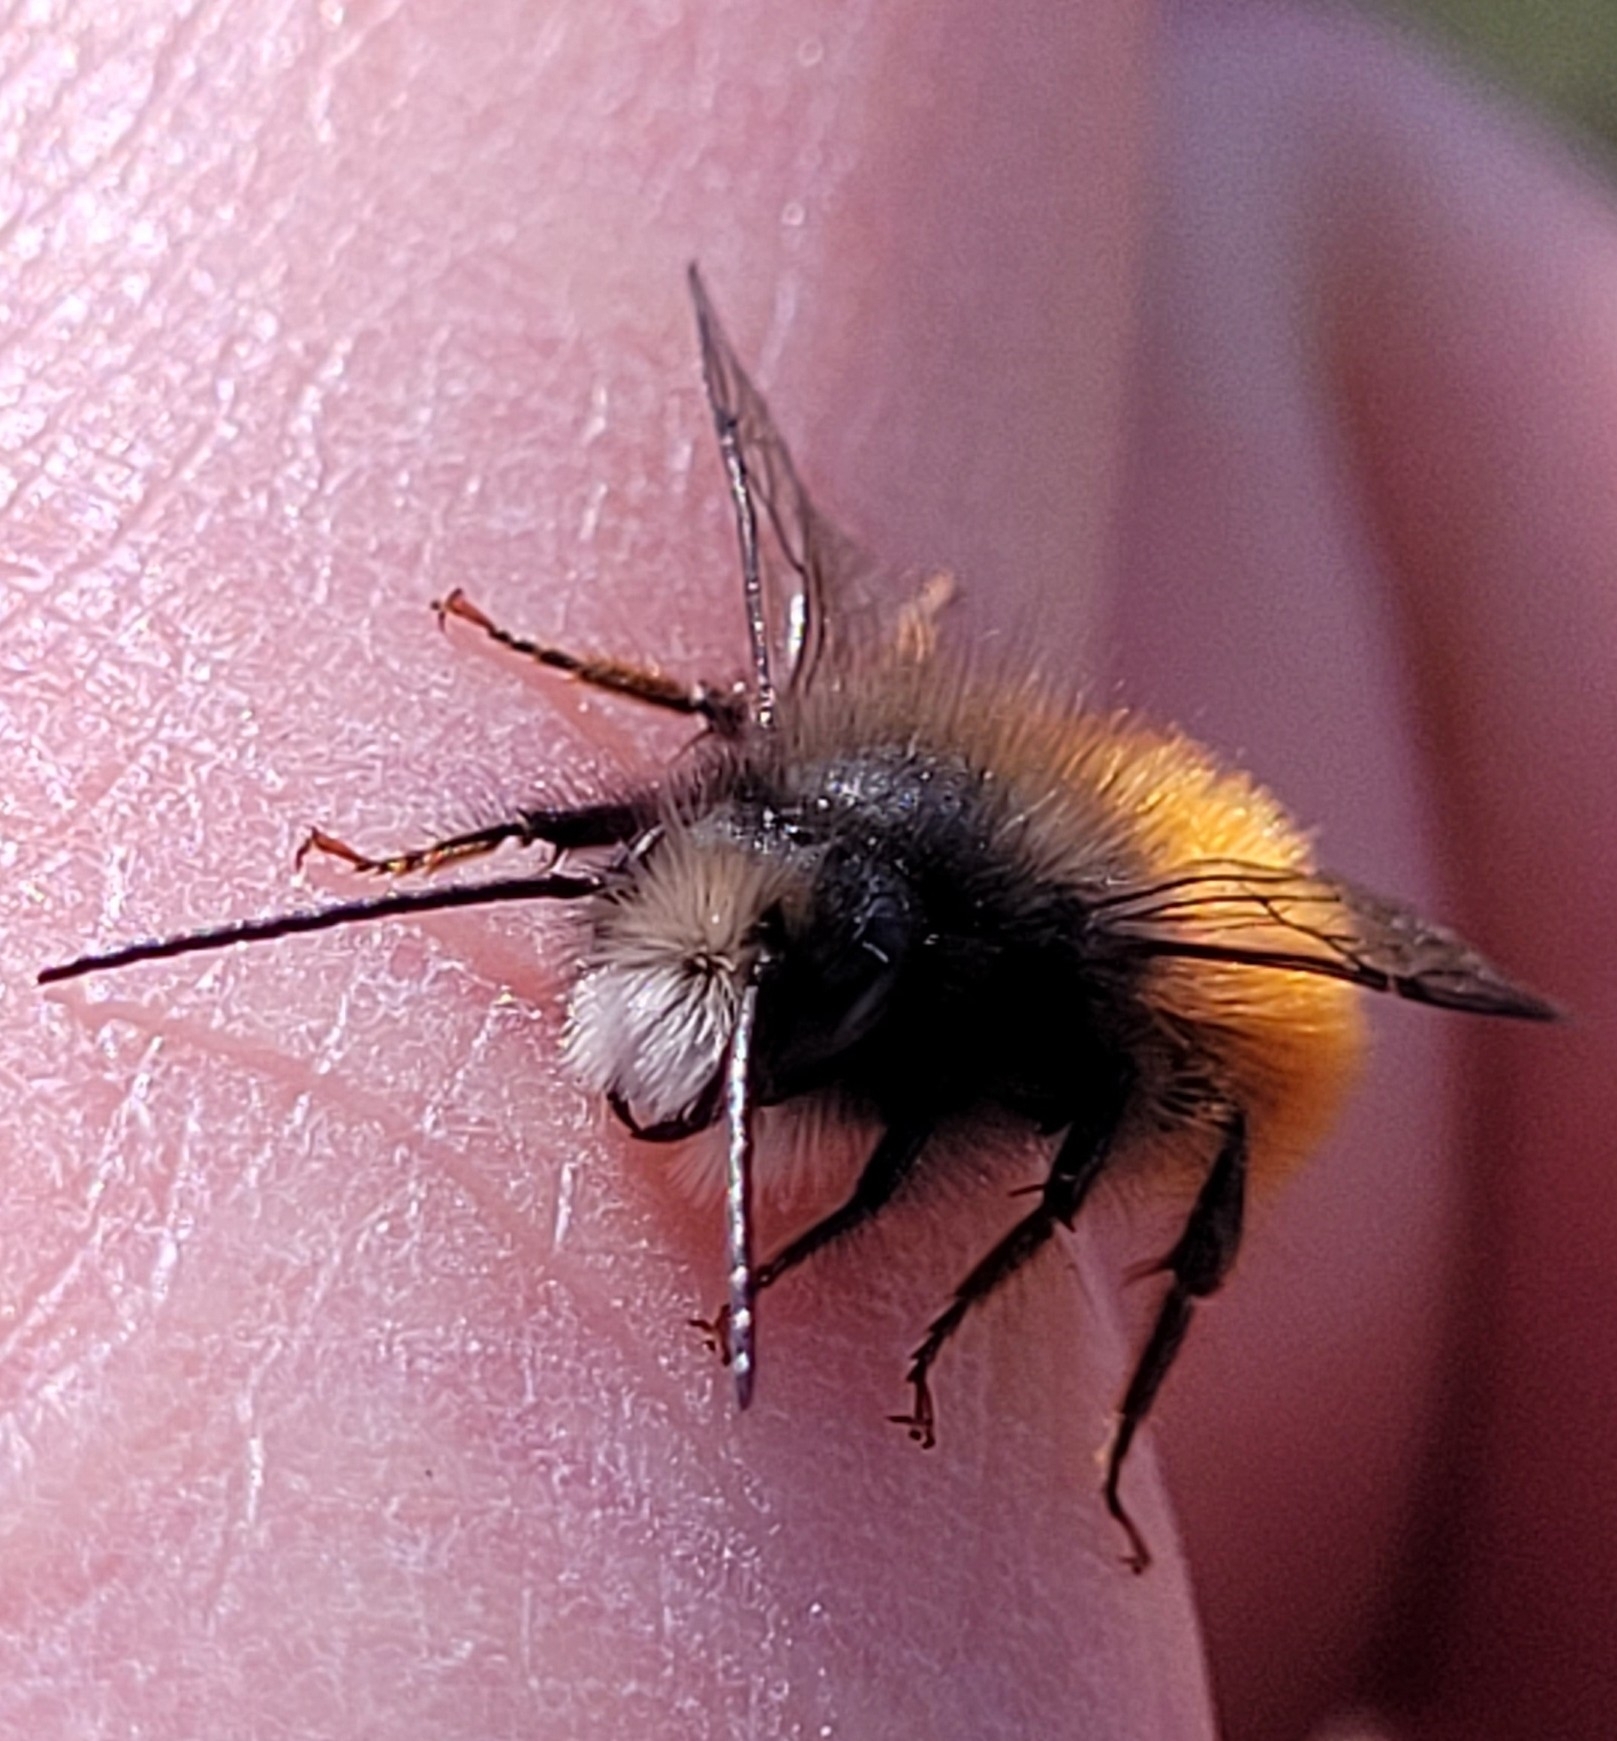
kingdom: Animalia
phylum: Arthropoda
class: Insecta
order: Hymenoptera
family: Megachilidae
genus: Osmia
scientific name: Osmia cornuta
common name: Mason bee
